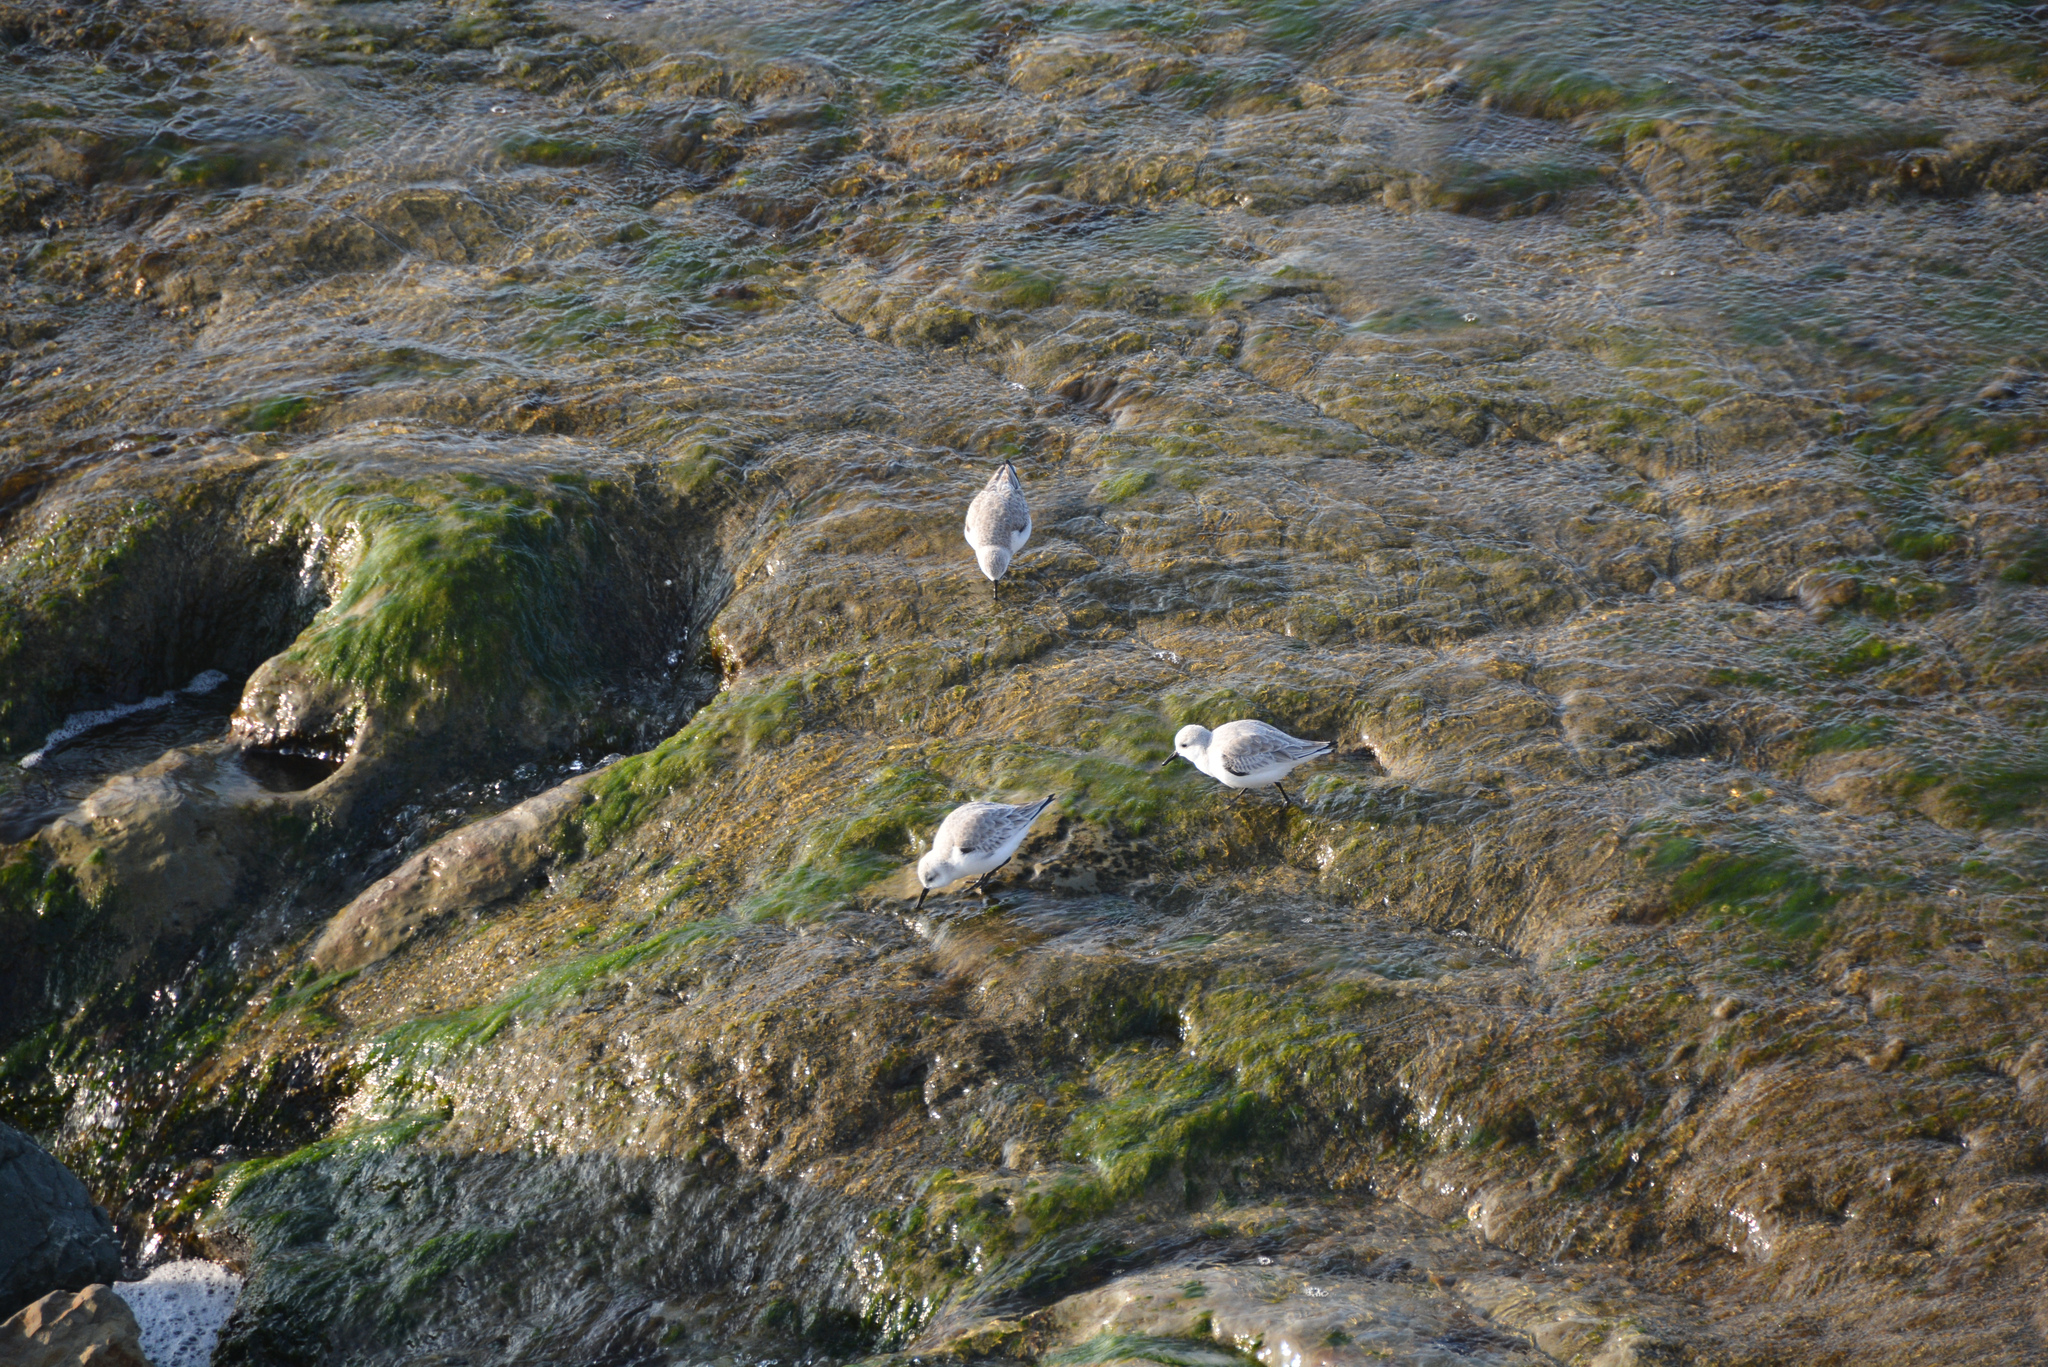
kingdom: Animalia
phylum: Chordata
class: Aves
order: Charadriiformes
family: Scolopacidae
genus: Calidris
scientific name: Calidris alba
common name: Sanderling
